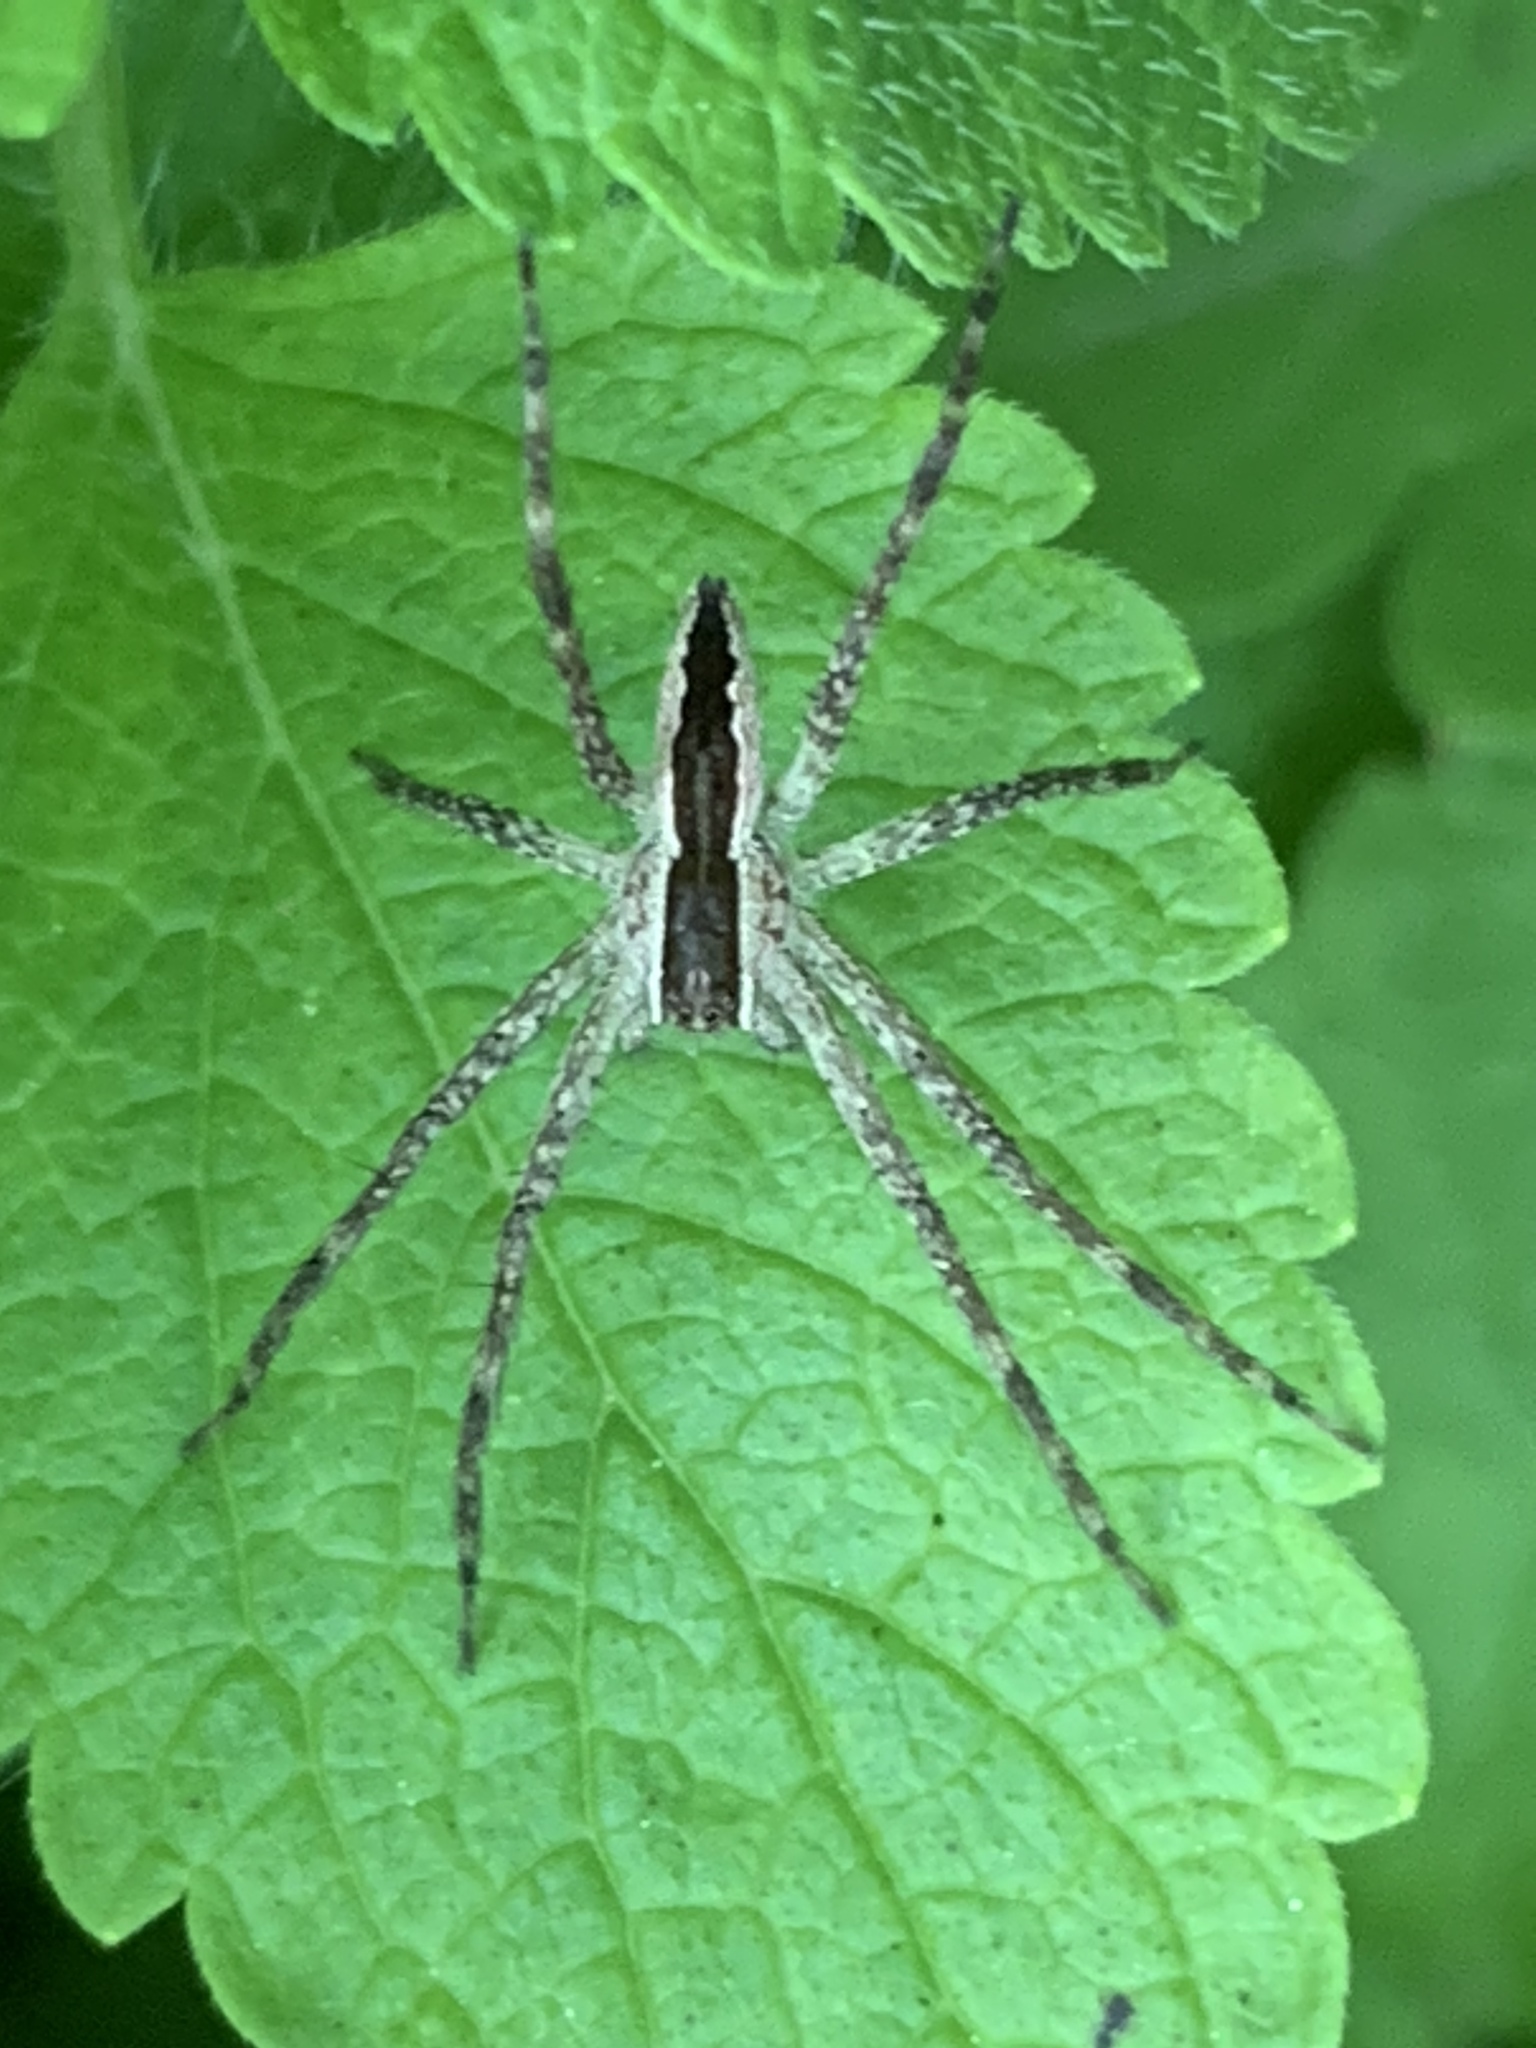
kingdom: Animalia
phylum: Arthropoda
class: Arachnida
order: Araneae
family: Pisauridae
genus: Pisaurina
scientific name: Pisaurina mira
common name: American nursery web spider
